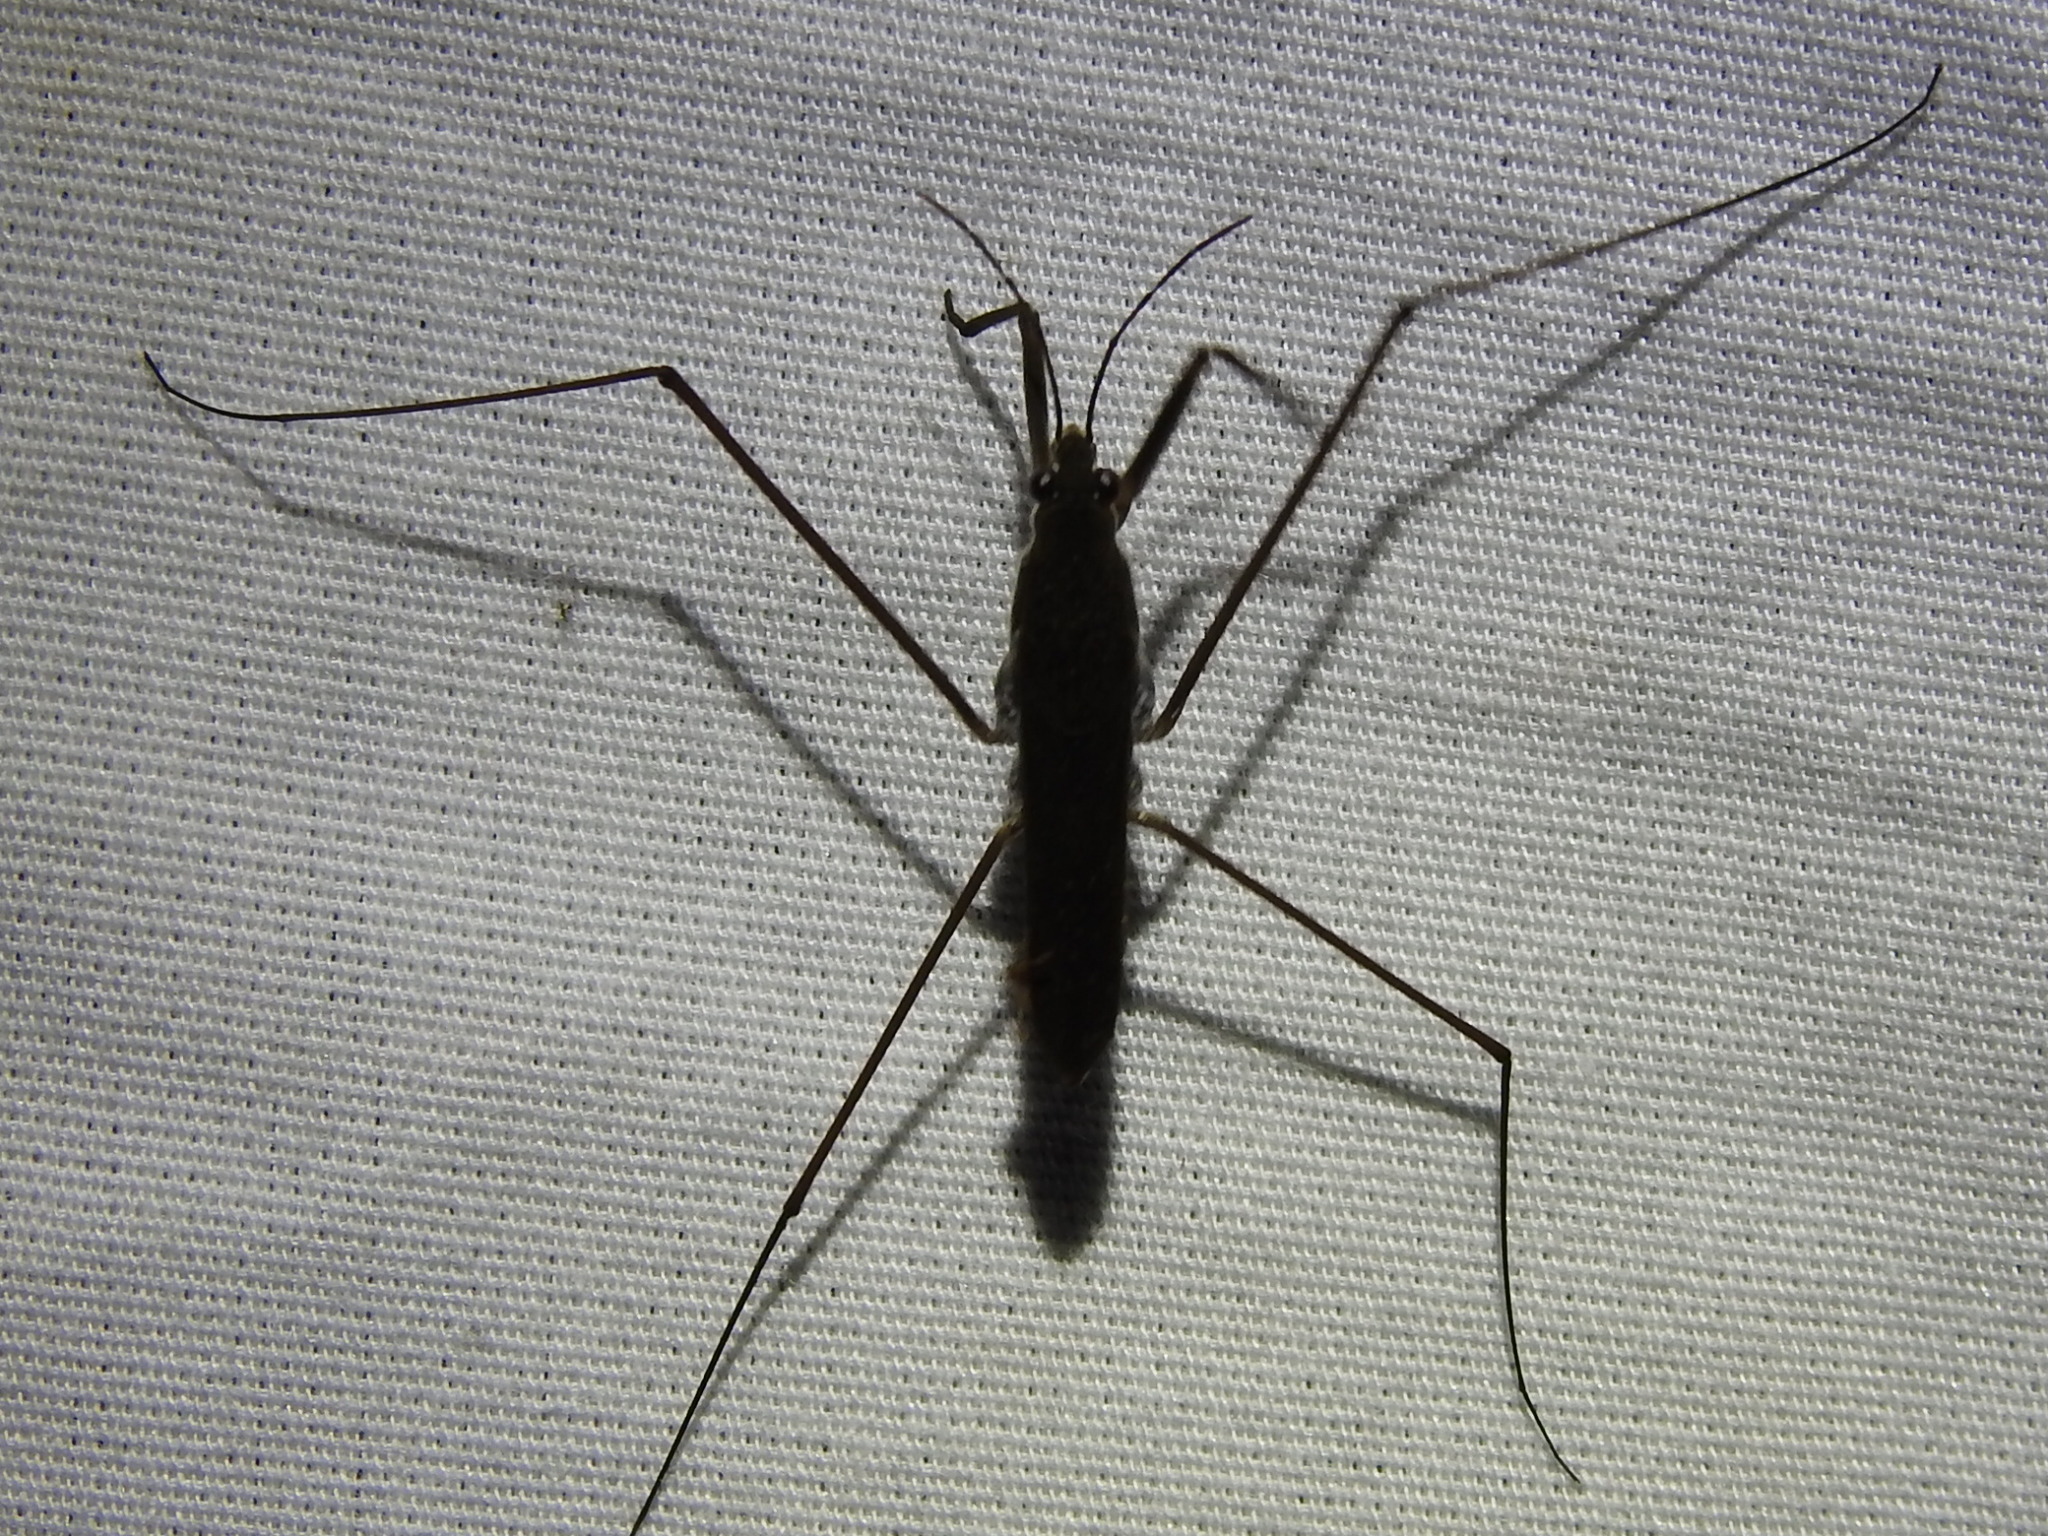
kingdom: Animalia
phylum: Arthropoda
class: Insecta
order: Hemiptera
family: Gerridae
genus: Aquarius
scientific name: Aquarius remigis
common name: Common water strider
